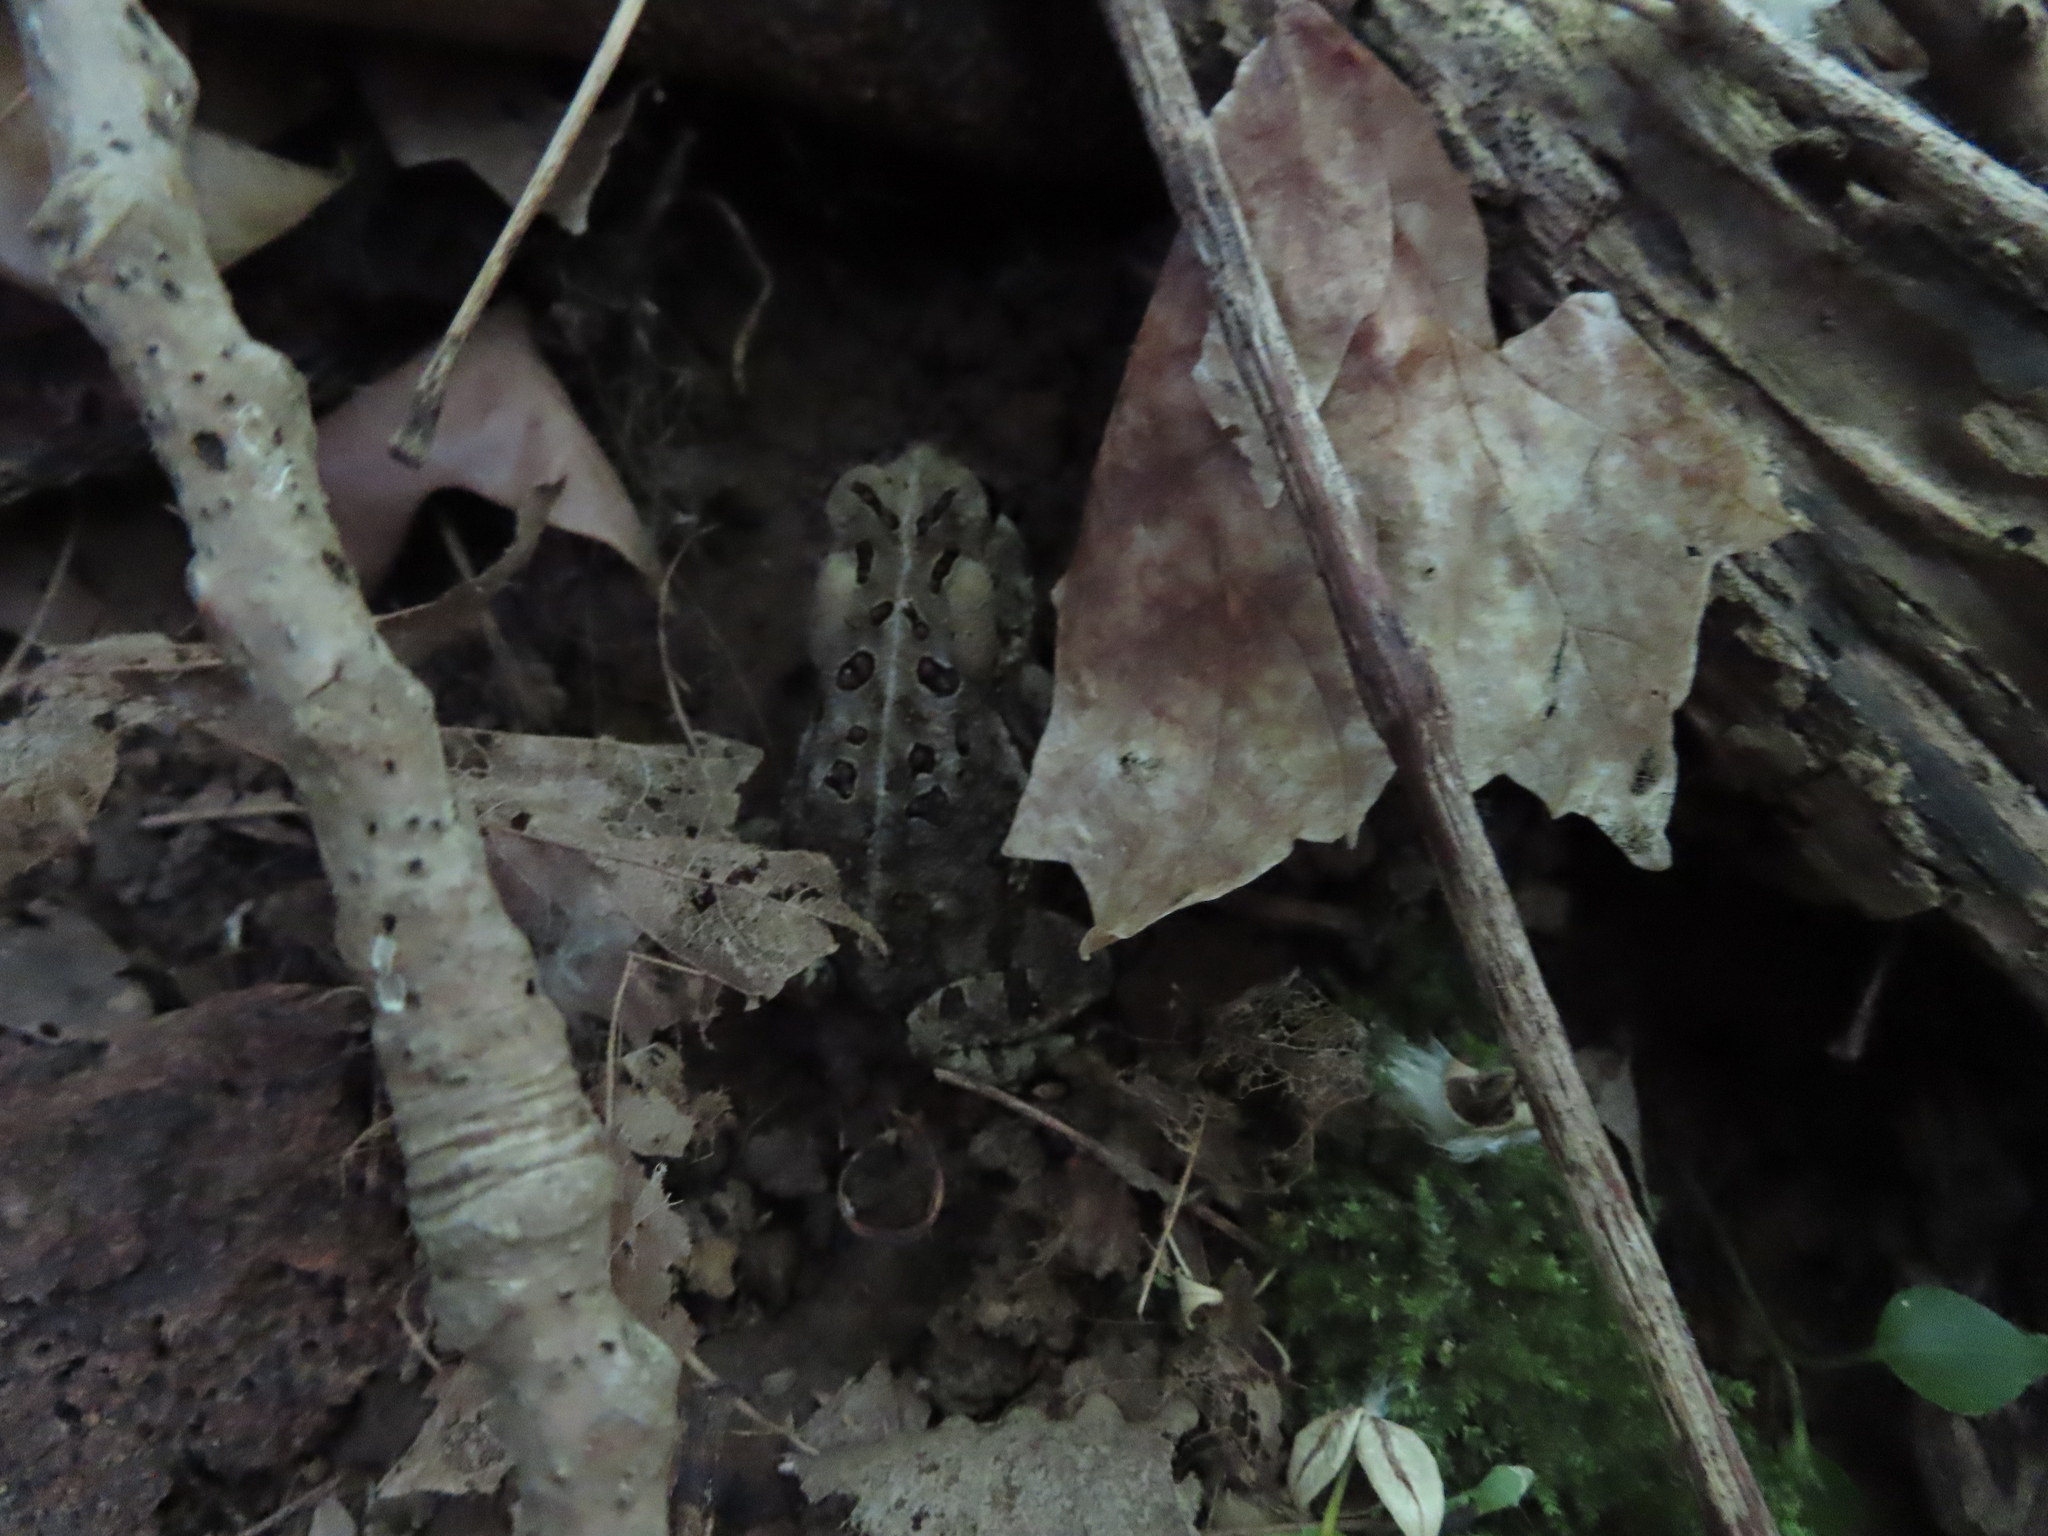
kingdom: Animalia
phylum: Chordata
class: Amphibia
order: Anura
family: Bufonidae
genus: Anaxyrus
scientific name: Anaxyrus fowleri
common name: Fowler's toad
